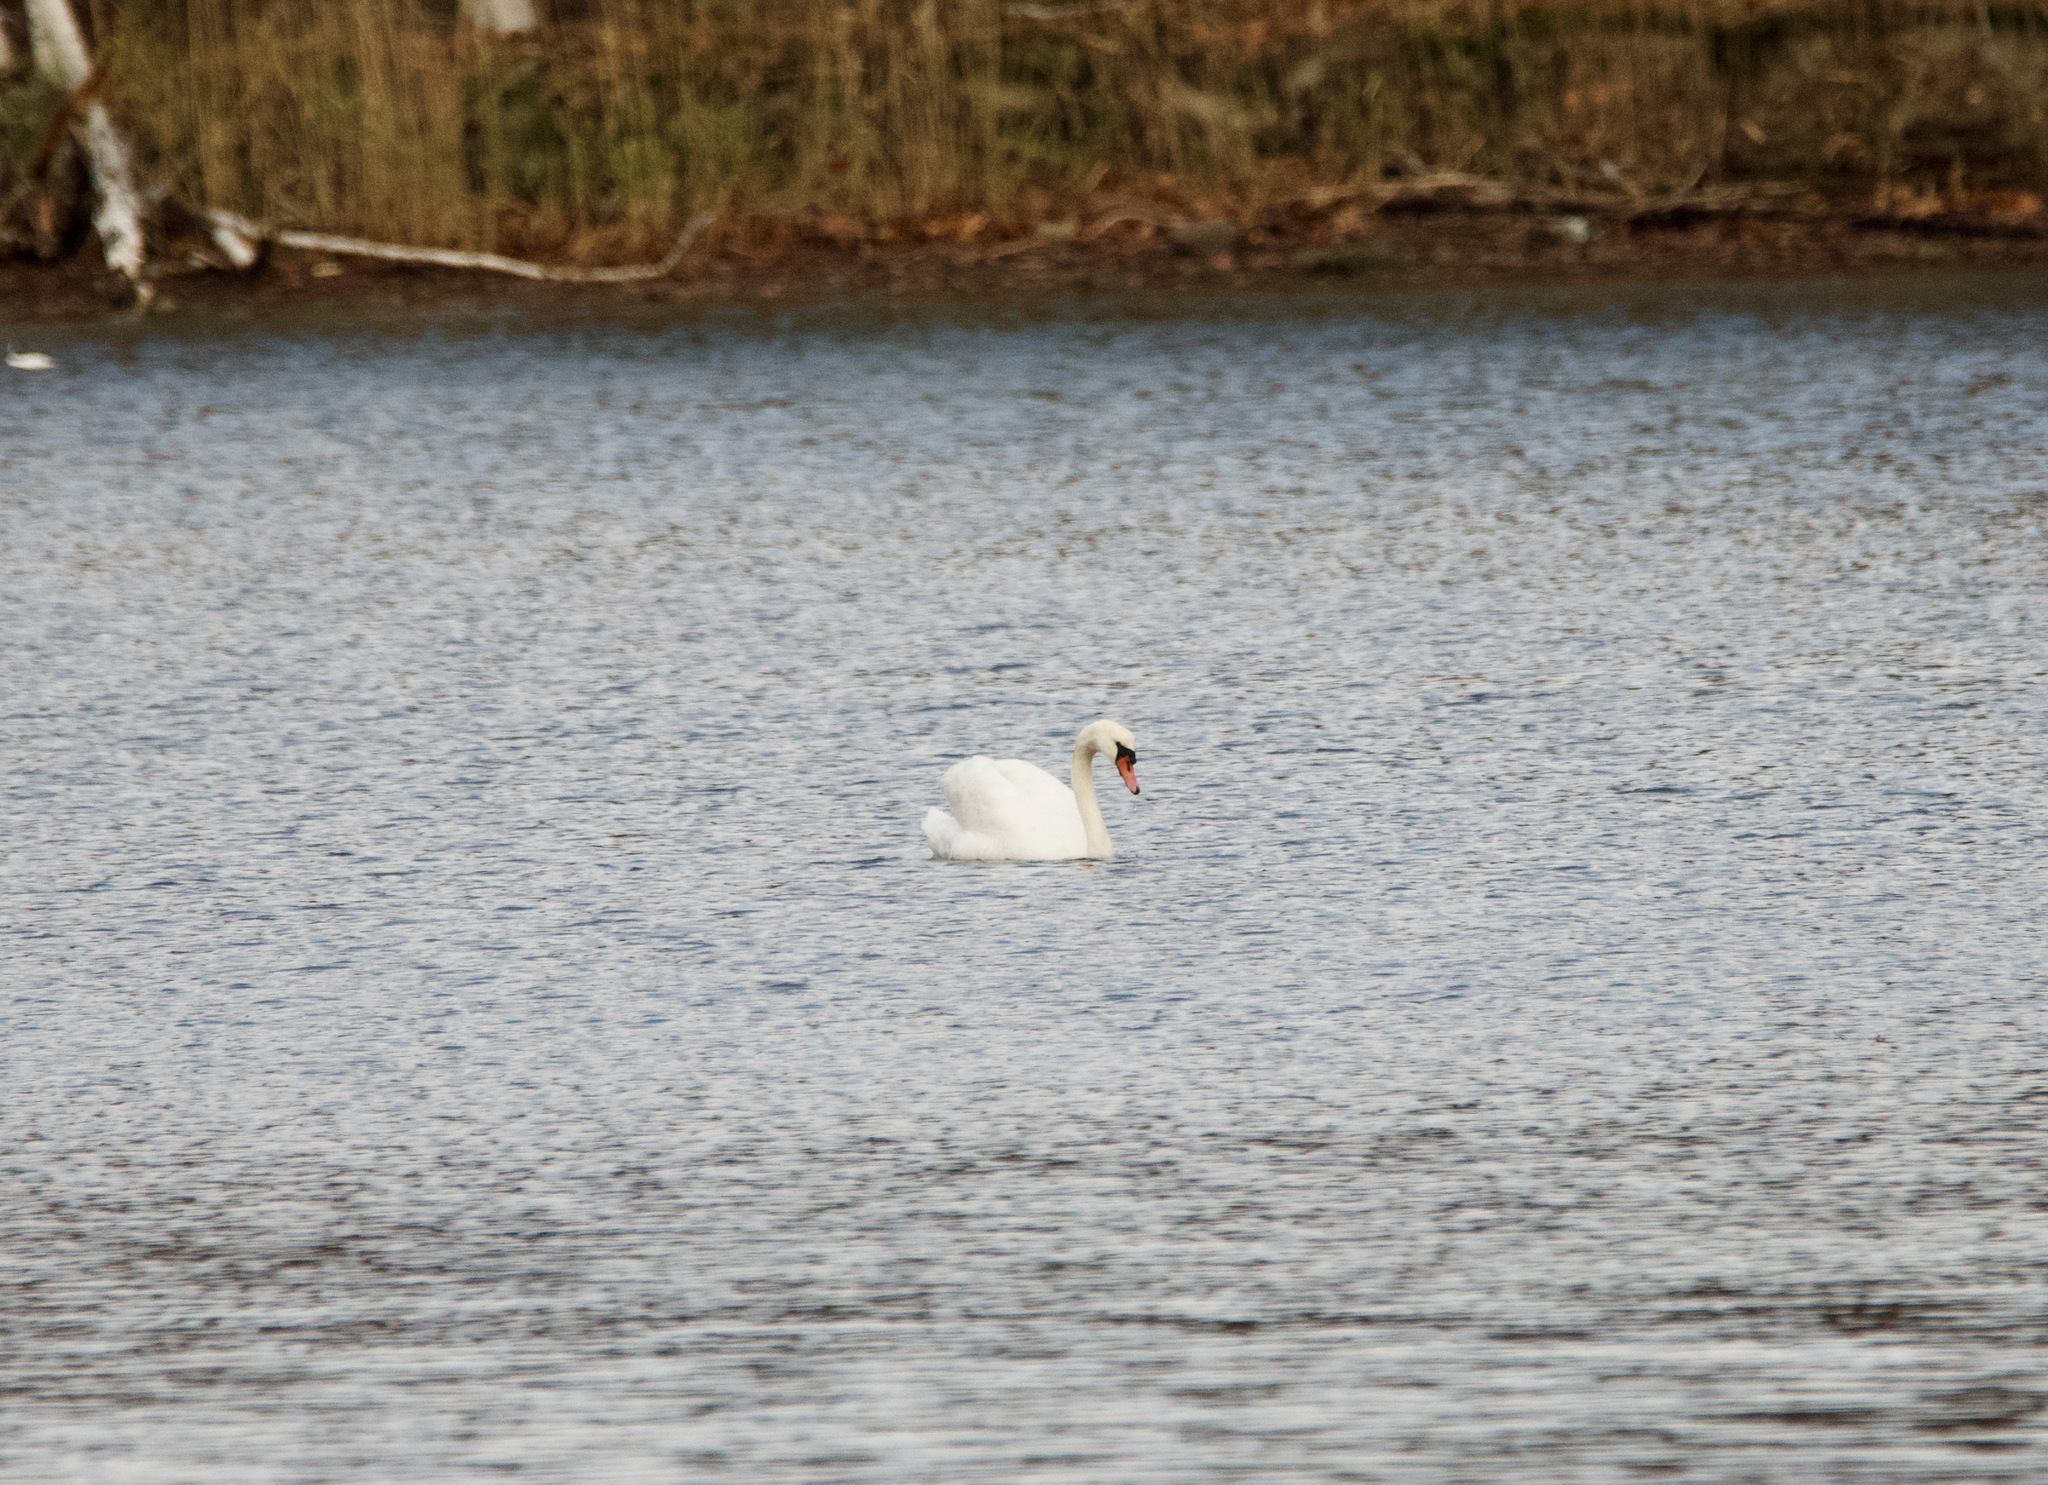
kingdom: Animalia
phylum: Chordata
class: Aves
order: Anseriformes
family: Anatidae
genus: Cygnus
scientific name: Cygnus olor
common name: Mute swan
